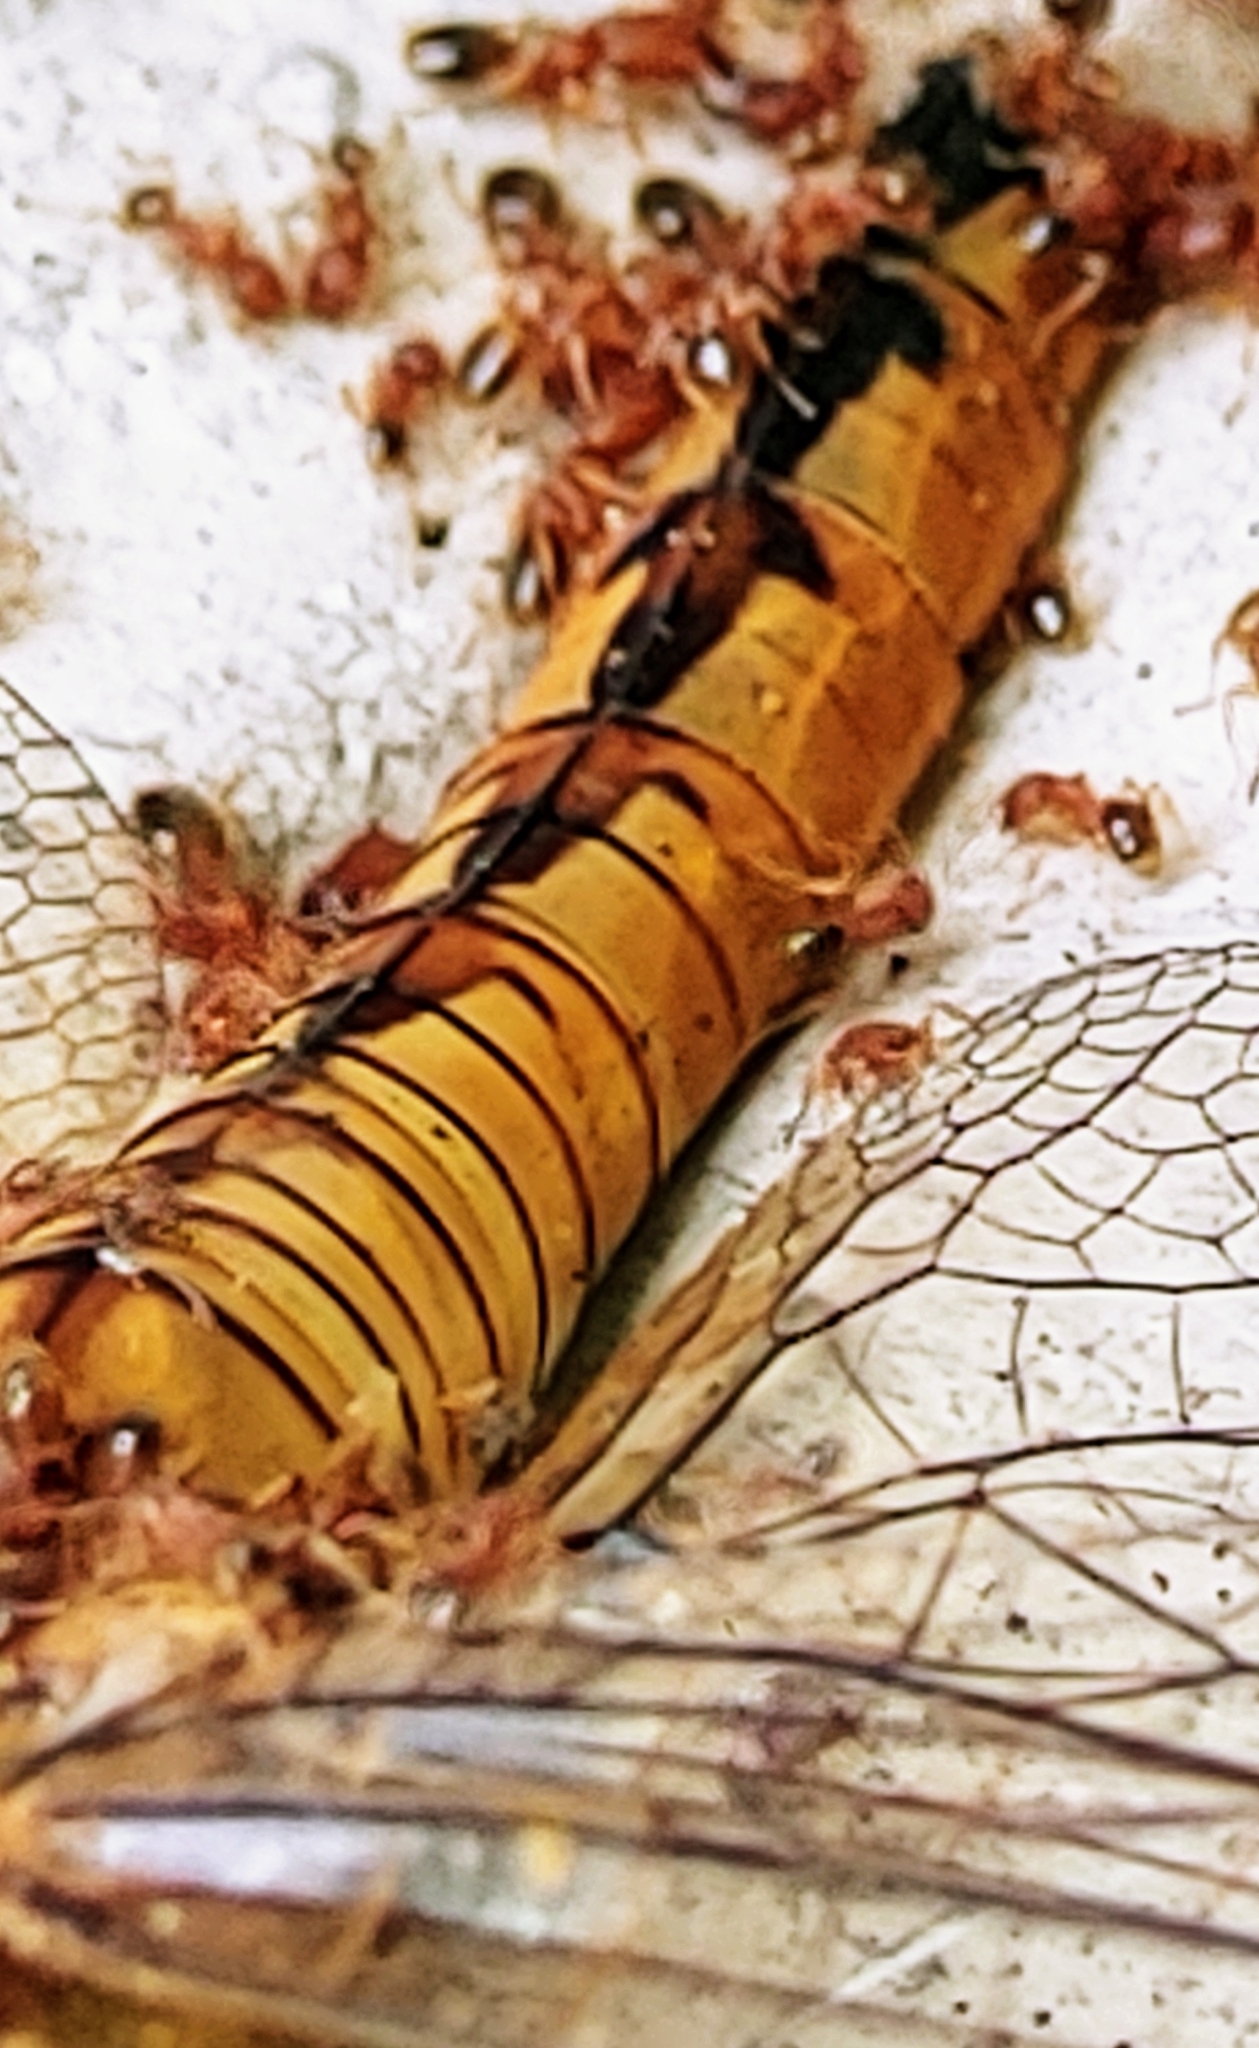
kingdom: Animalia
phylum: Arthropoda
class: Insecta
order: Odonata
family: Libellulidae
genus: Pantala
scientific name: Pantala flavescens
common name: Wandering glider
